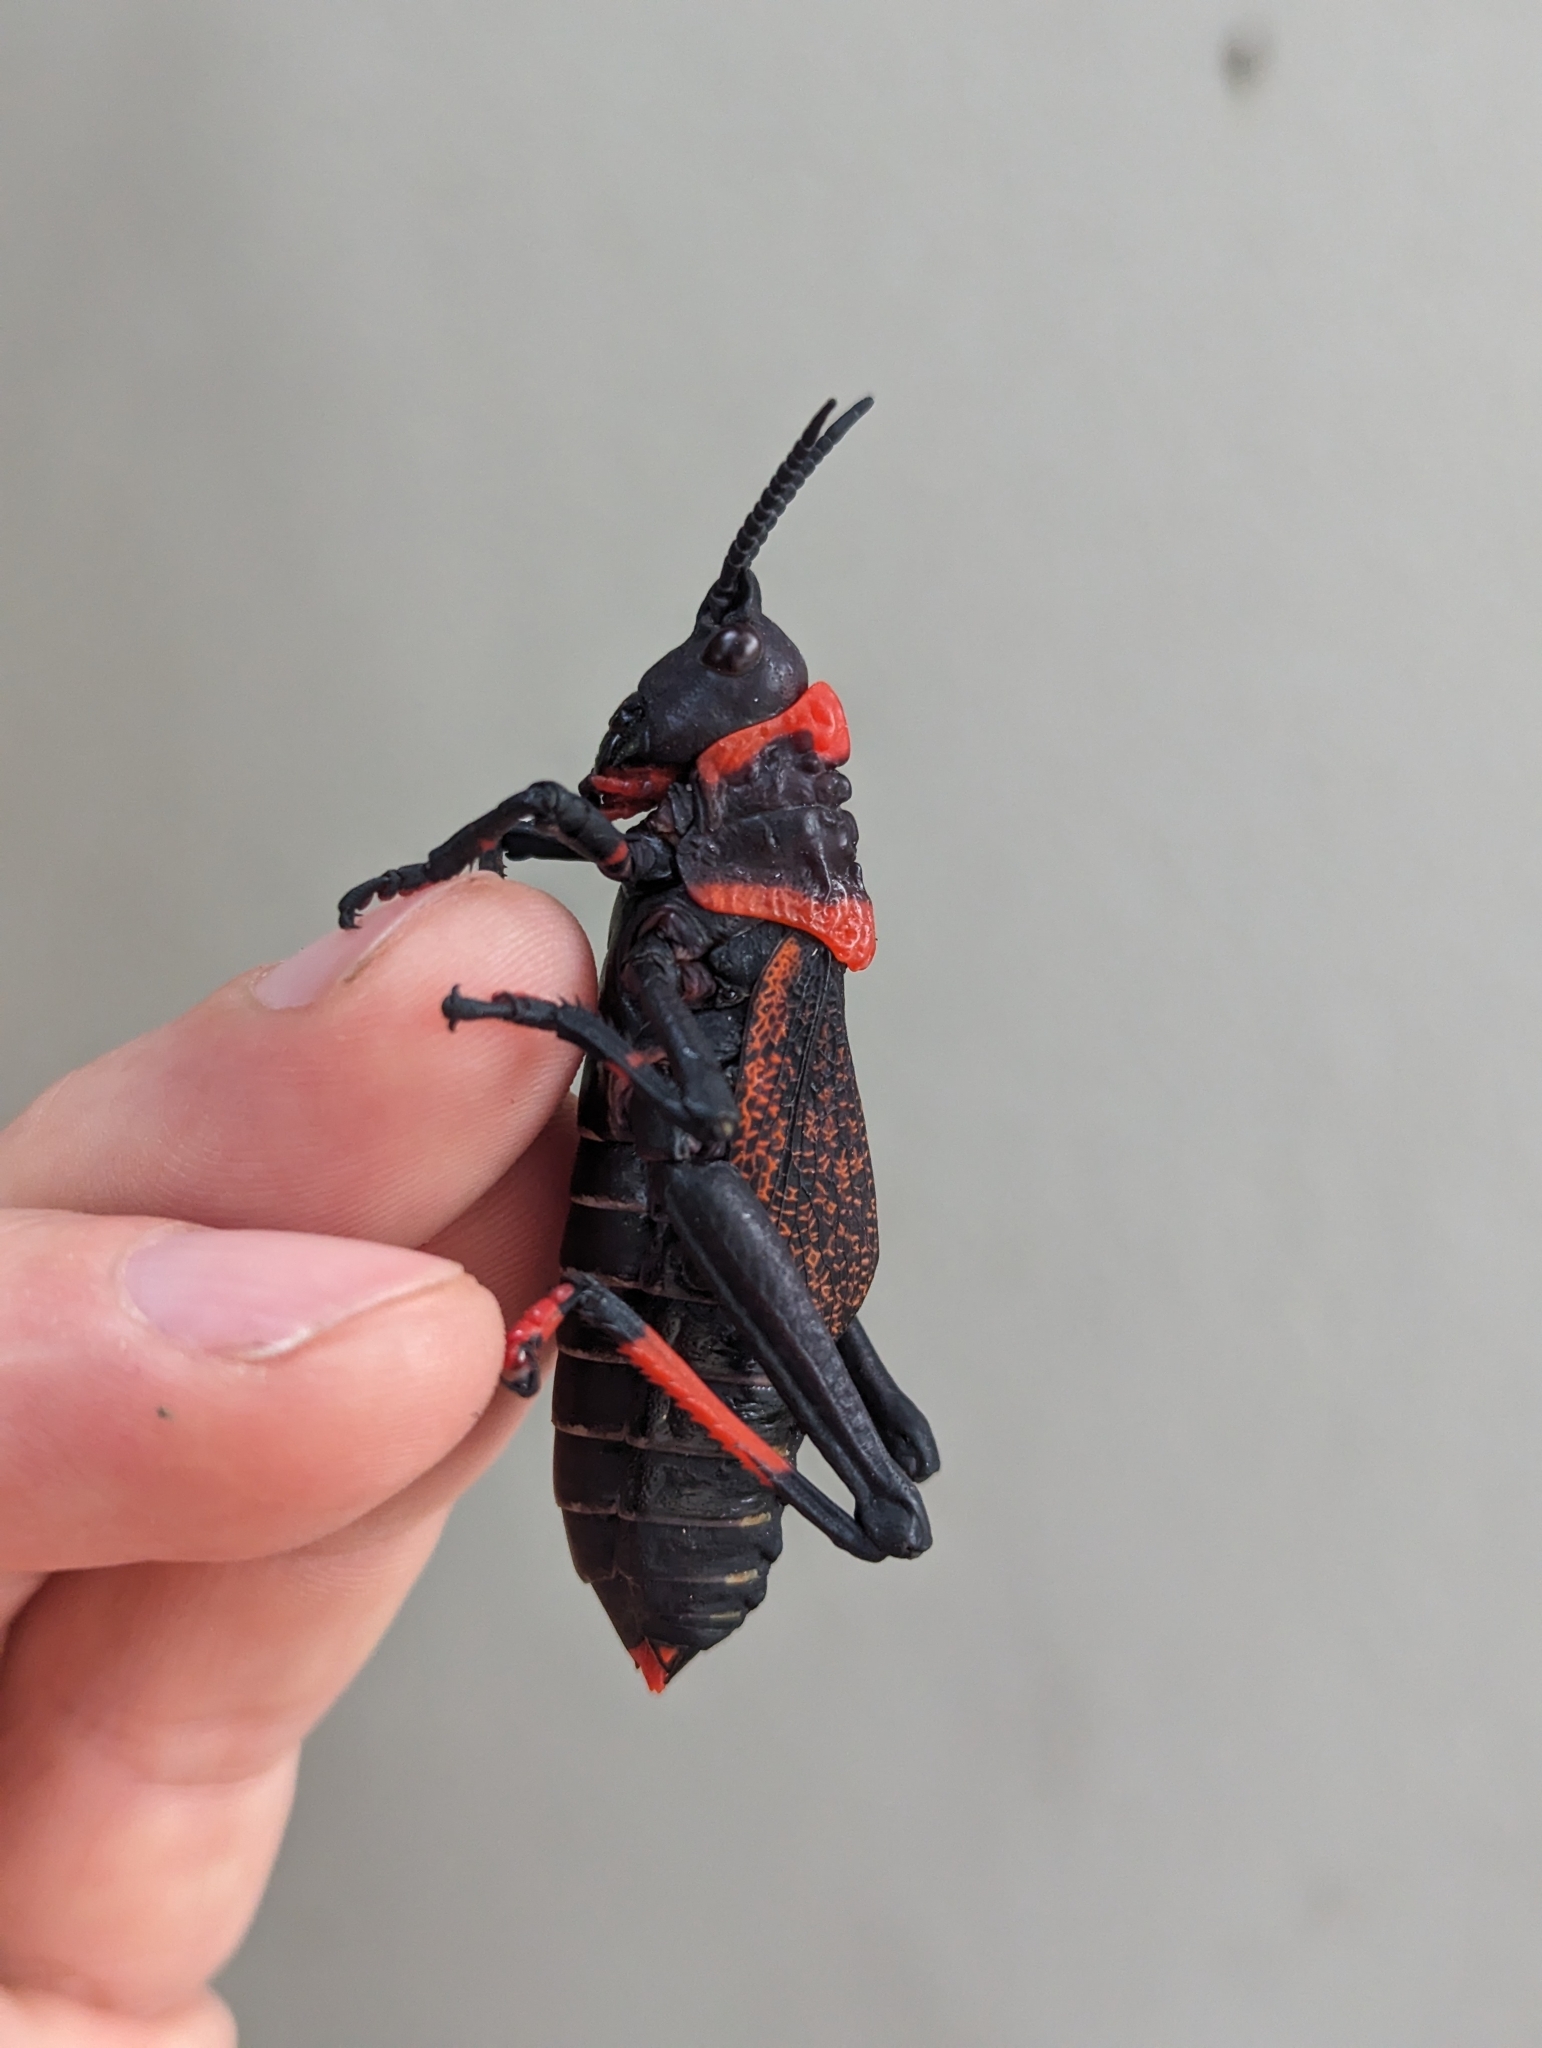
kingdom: Animalia
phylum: Arthropoda
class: Insecta
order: Orthoptera
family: Pyrgomorphidae
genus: Dictyophorus
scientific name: Dictyophorus spumans
